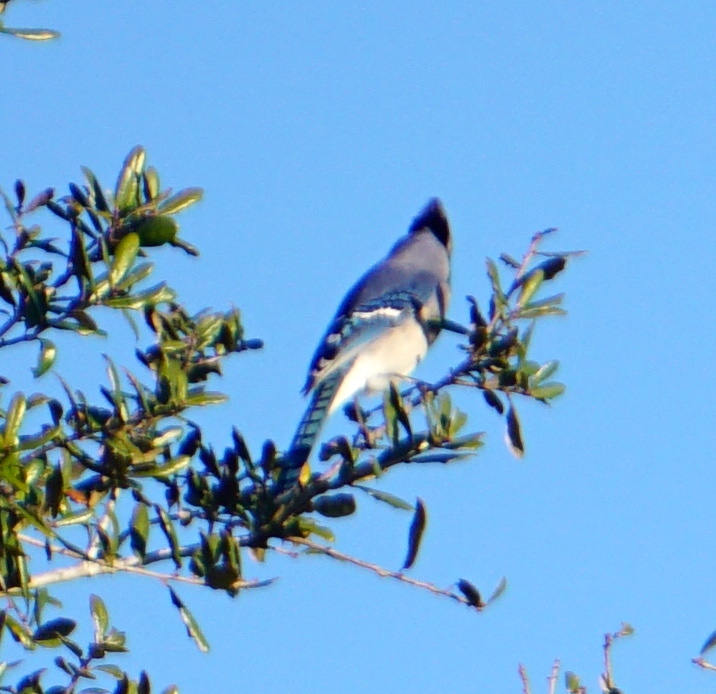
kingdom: Animalia
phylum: Chordata
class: Aves
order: Passeriformes
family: Corvidae
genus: Cyanocitta
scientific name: Cyanocitta cristata
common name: Blue jay
